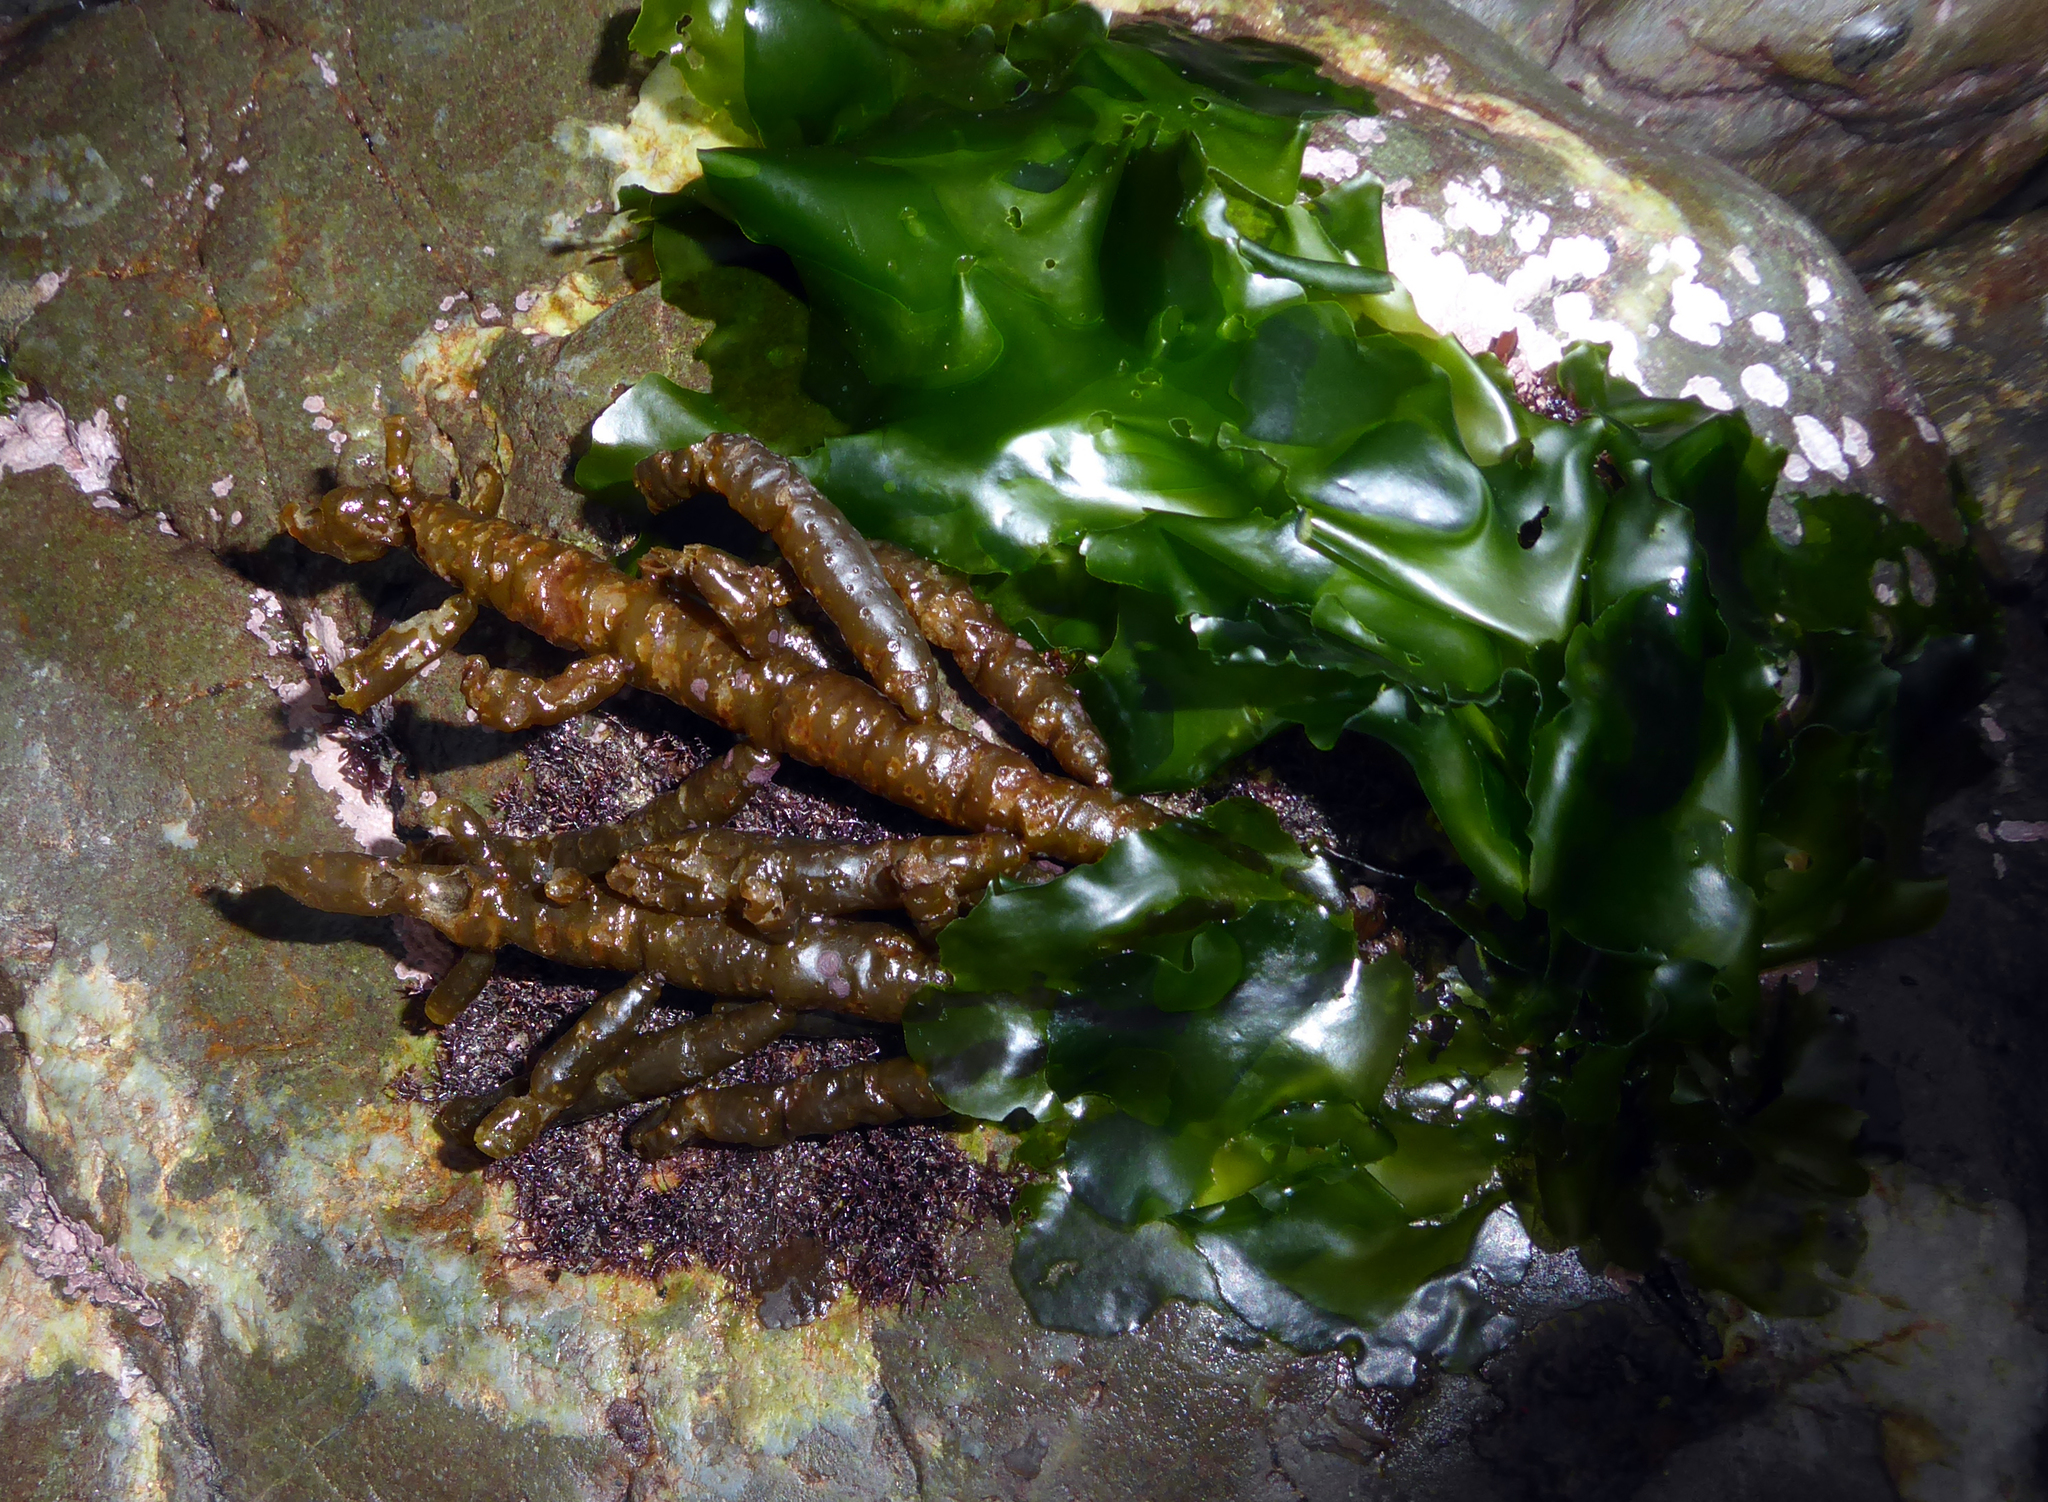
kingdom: Chromista
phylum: Ochrophyta
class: Phaeophyceae
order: Scytothamnales
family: Splachnidiaceae
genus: Splachnidium
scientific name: Splachnidium rugosum
